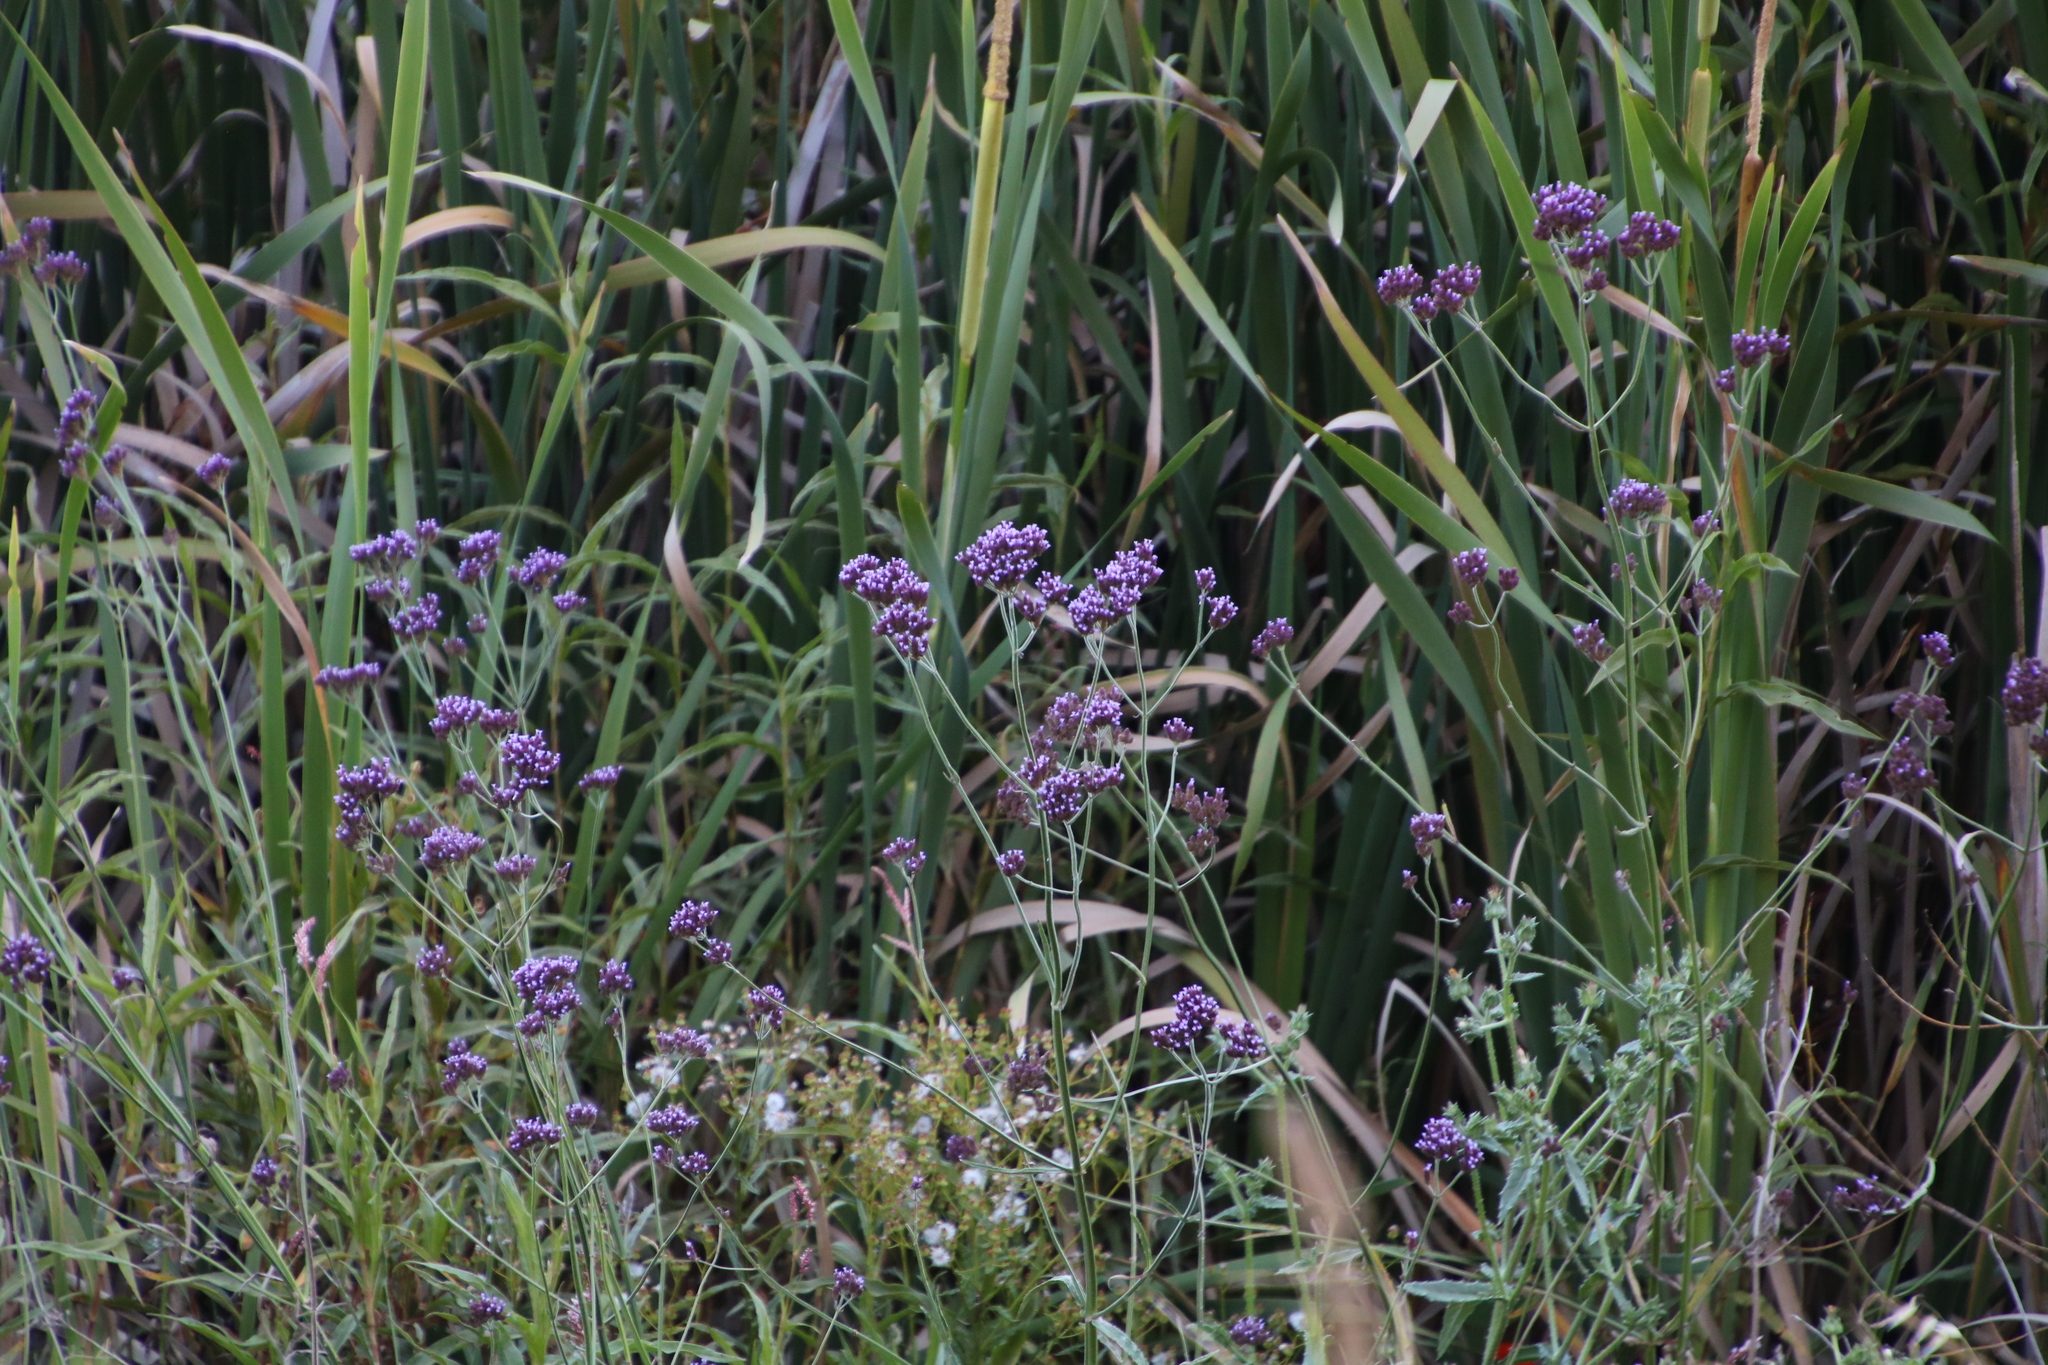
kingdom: Plantae
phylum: Tracheophyta
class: Magnoliopsida
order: Lamiales
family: Verbenaceae
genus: Verbena
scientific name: Verbena bonariensis
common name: Purpletop vervain
